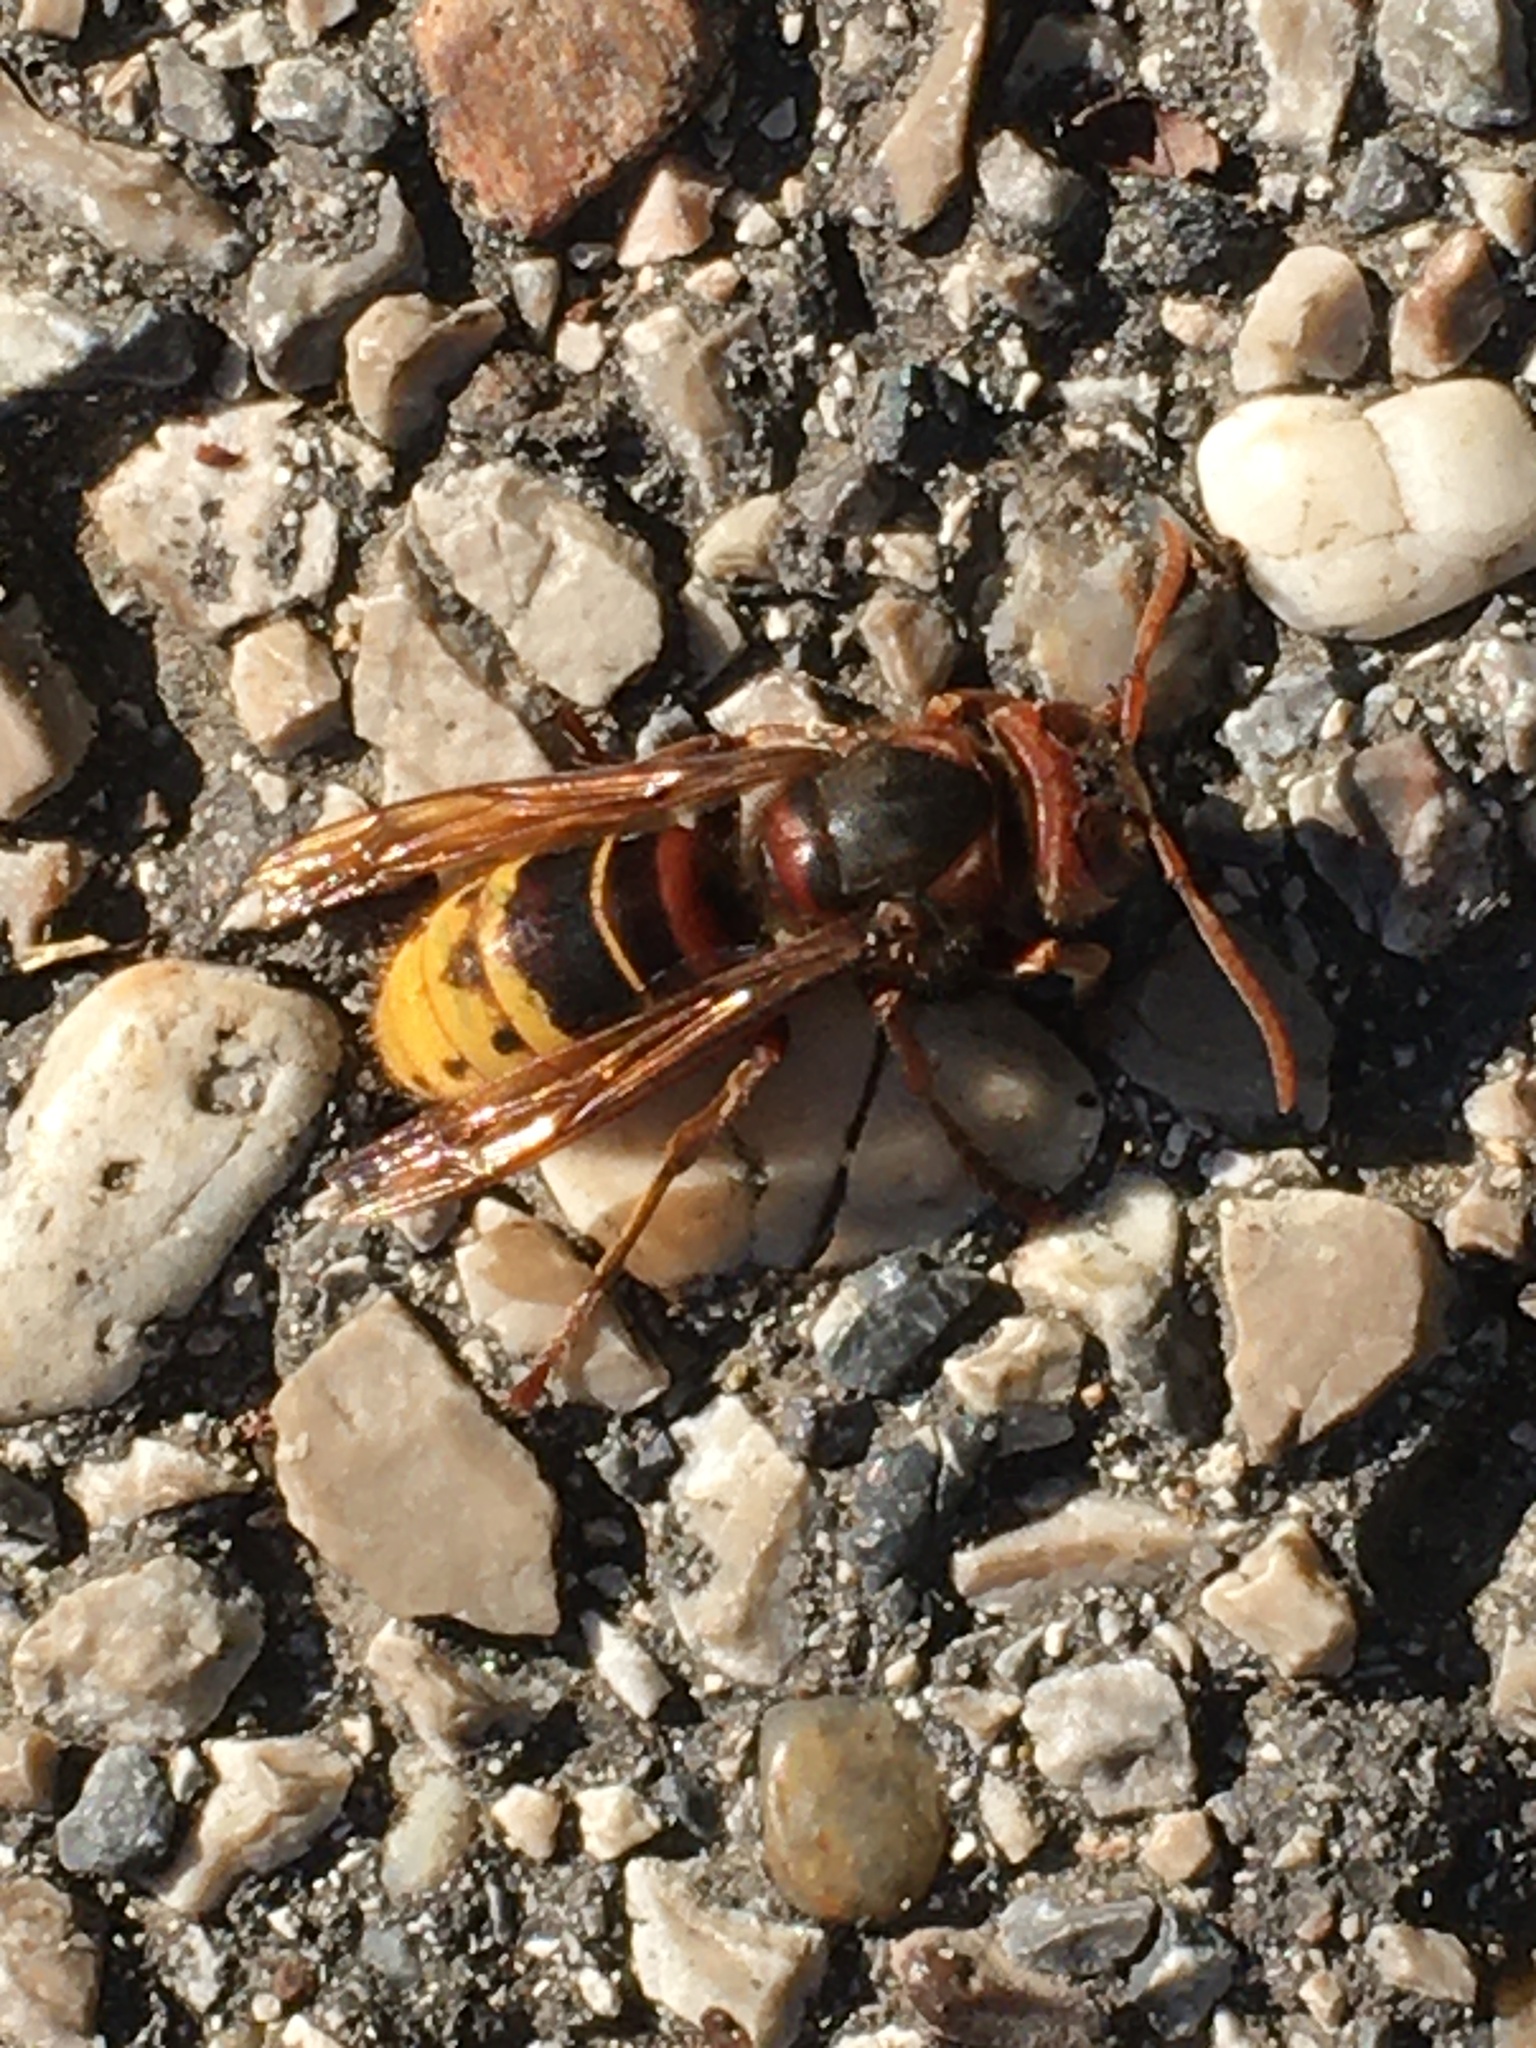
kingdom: Animalia
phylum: Arthropoda
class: Insecta
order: Hymenoptera
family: Vespidae
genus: Vespa
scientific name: Vespa crabro
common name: Hornet
